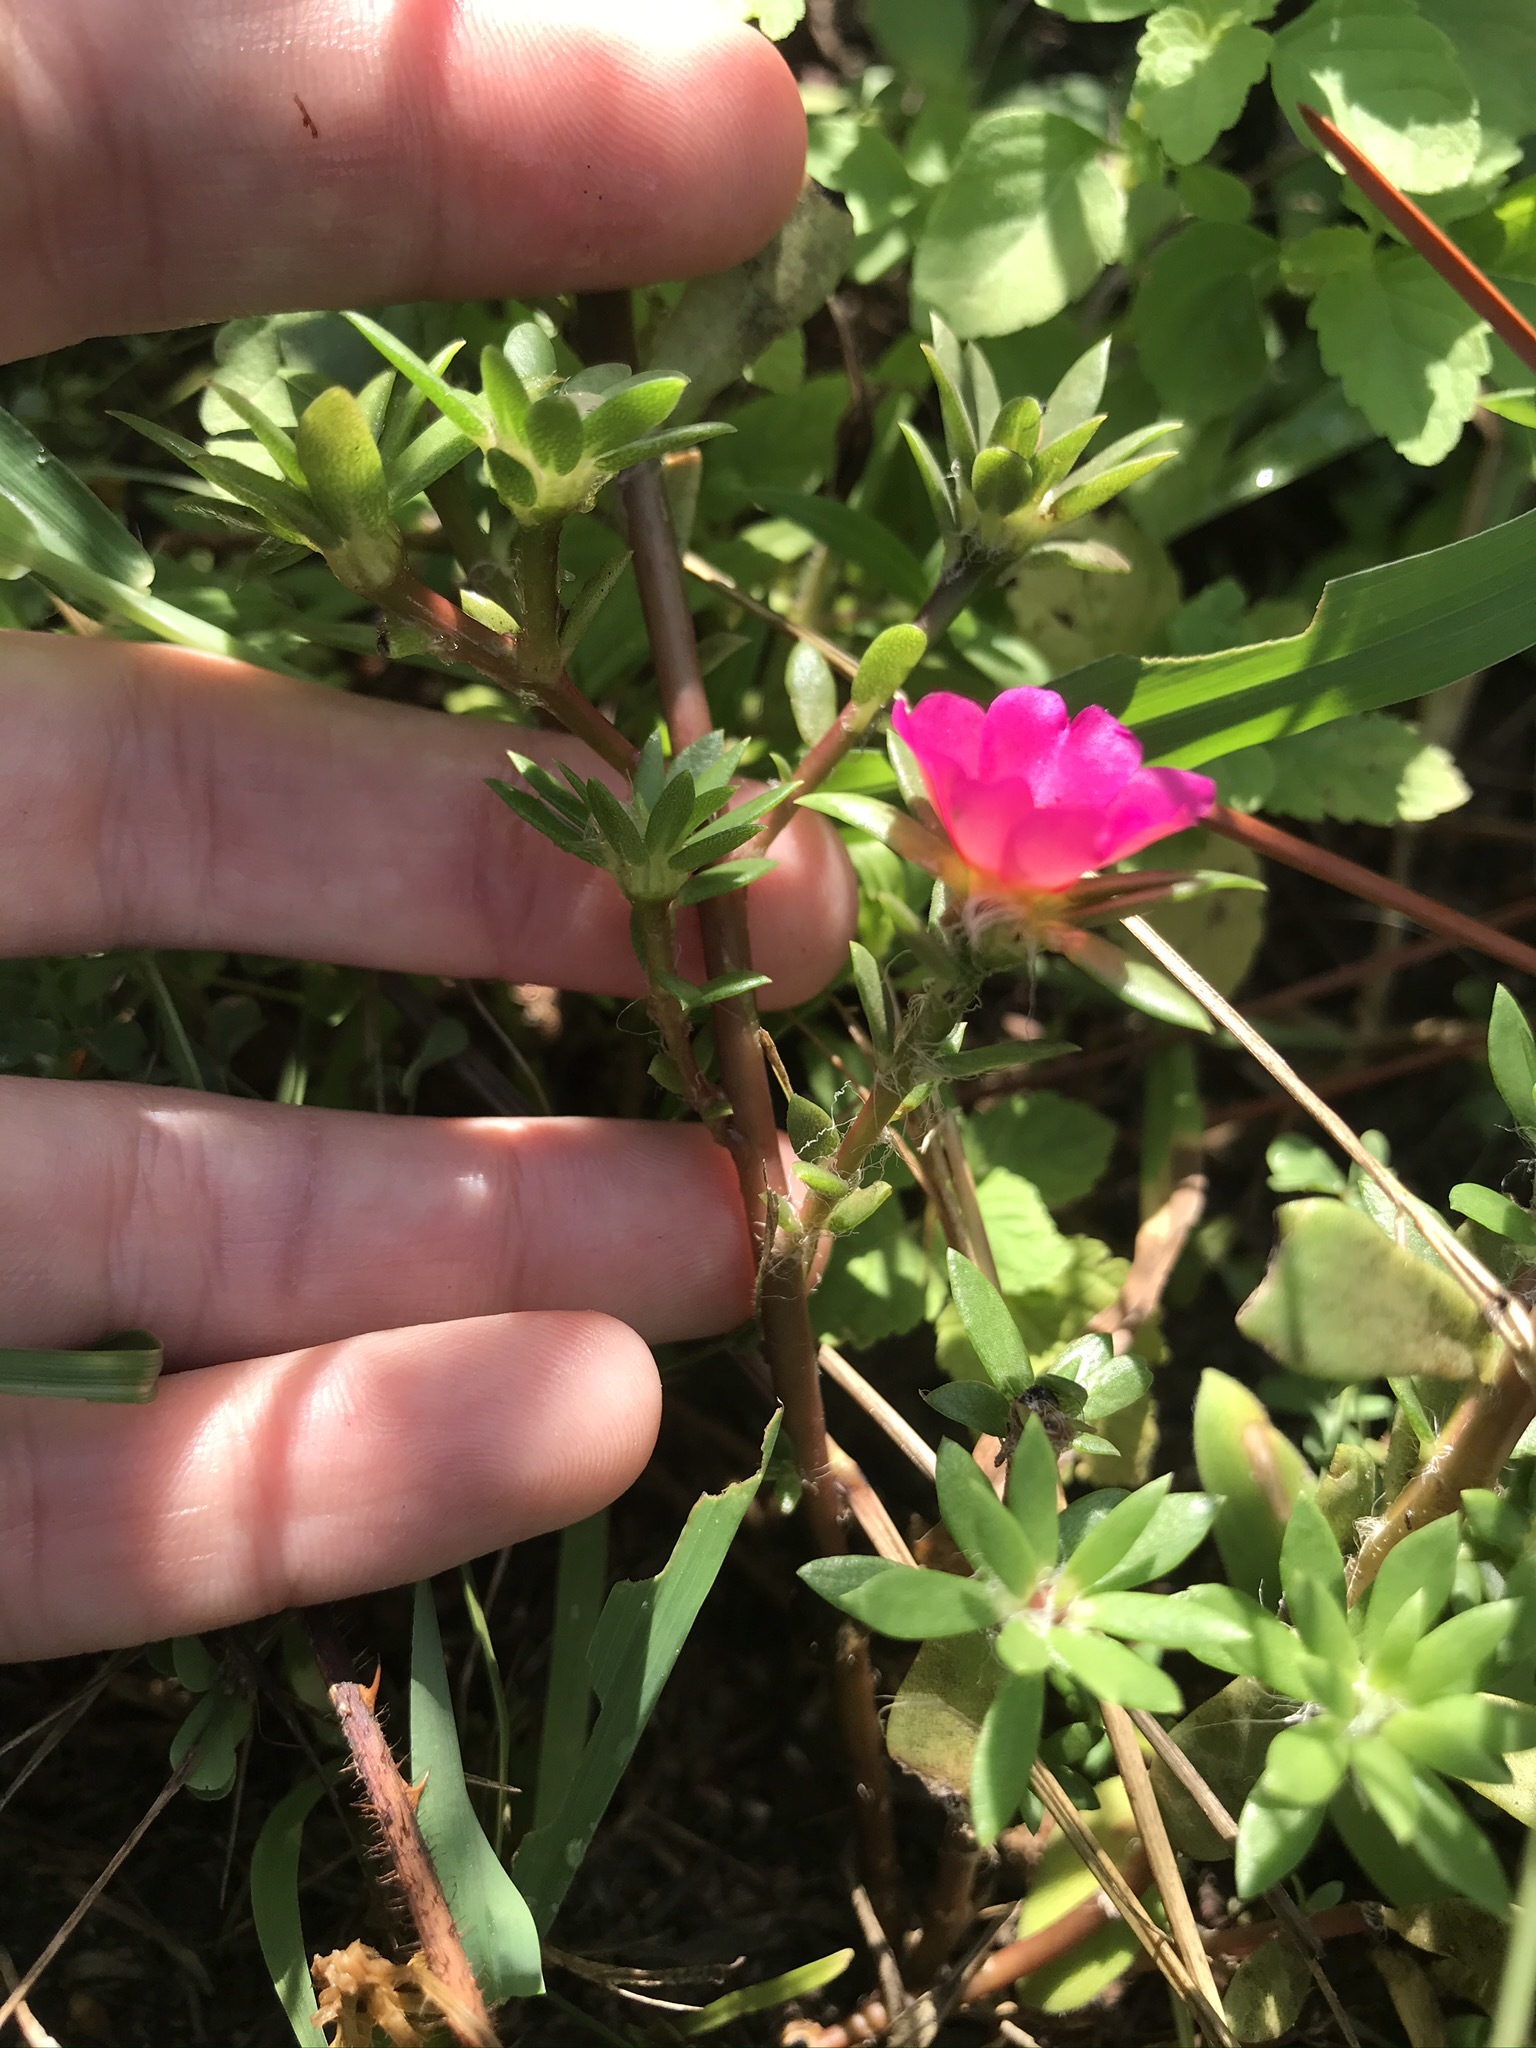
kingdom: Plantae
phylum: Tracheophyta
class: Magnoliopsida
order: Caryophyllales
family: Portulacaceae
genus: Portulaca
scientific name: Portulaca amilis
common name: Paraguayan purslane
